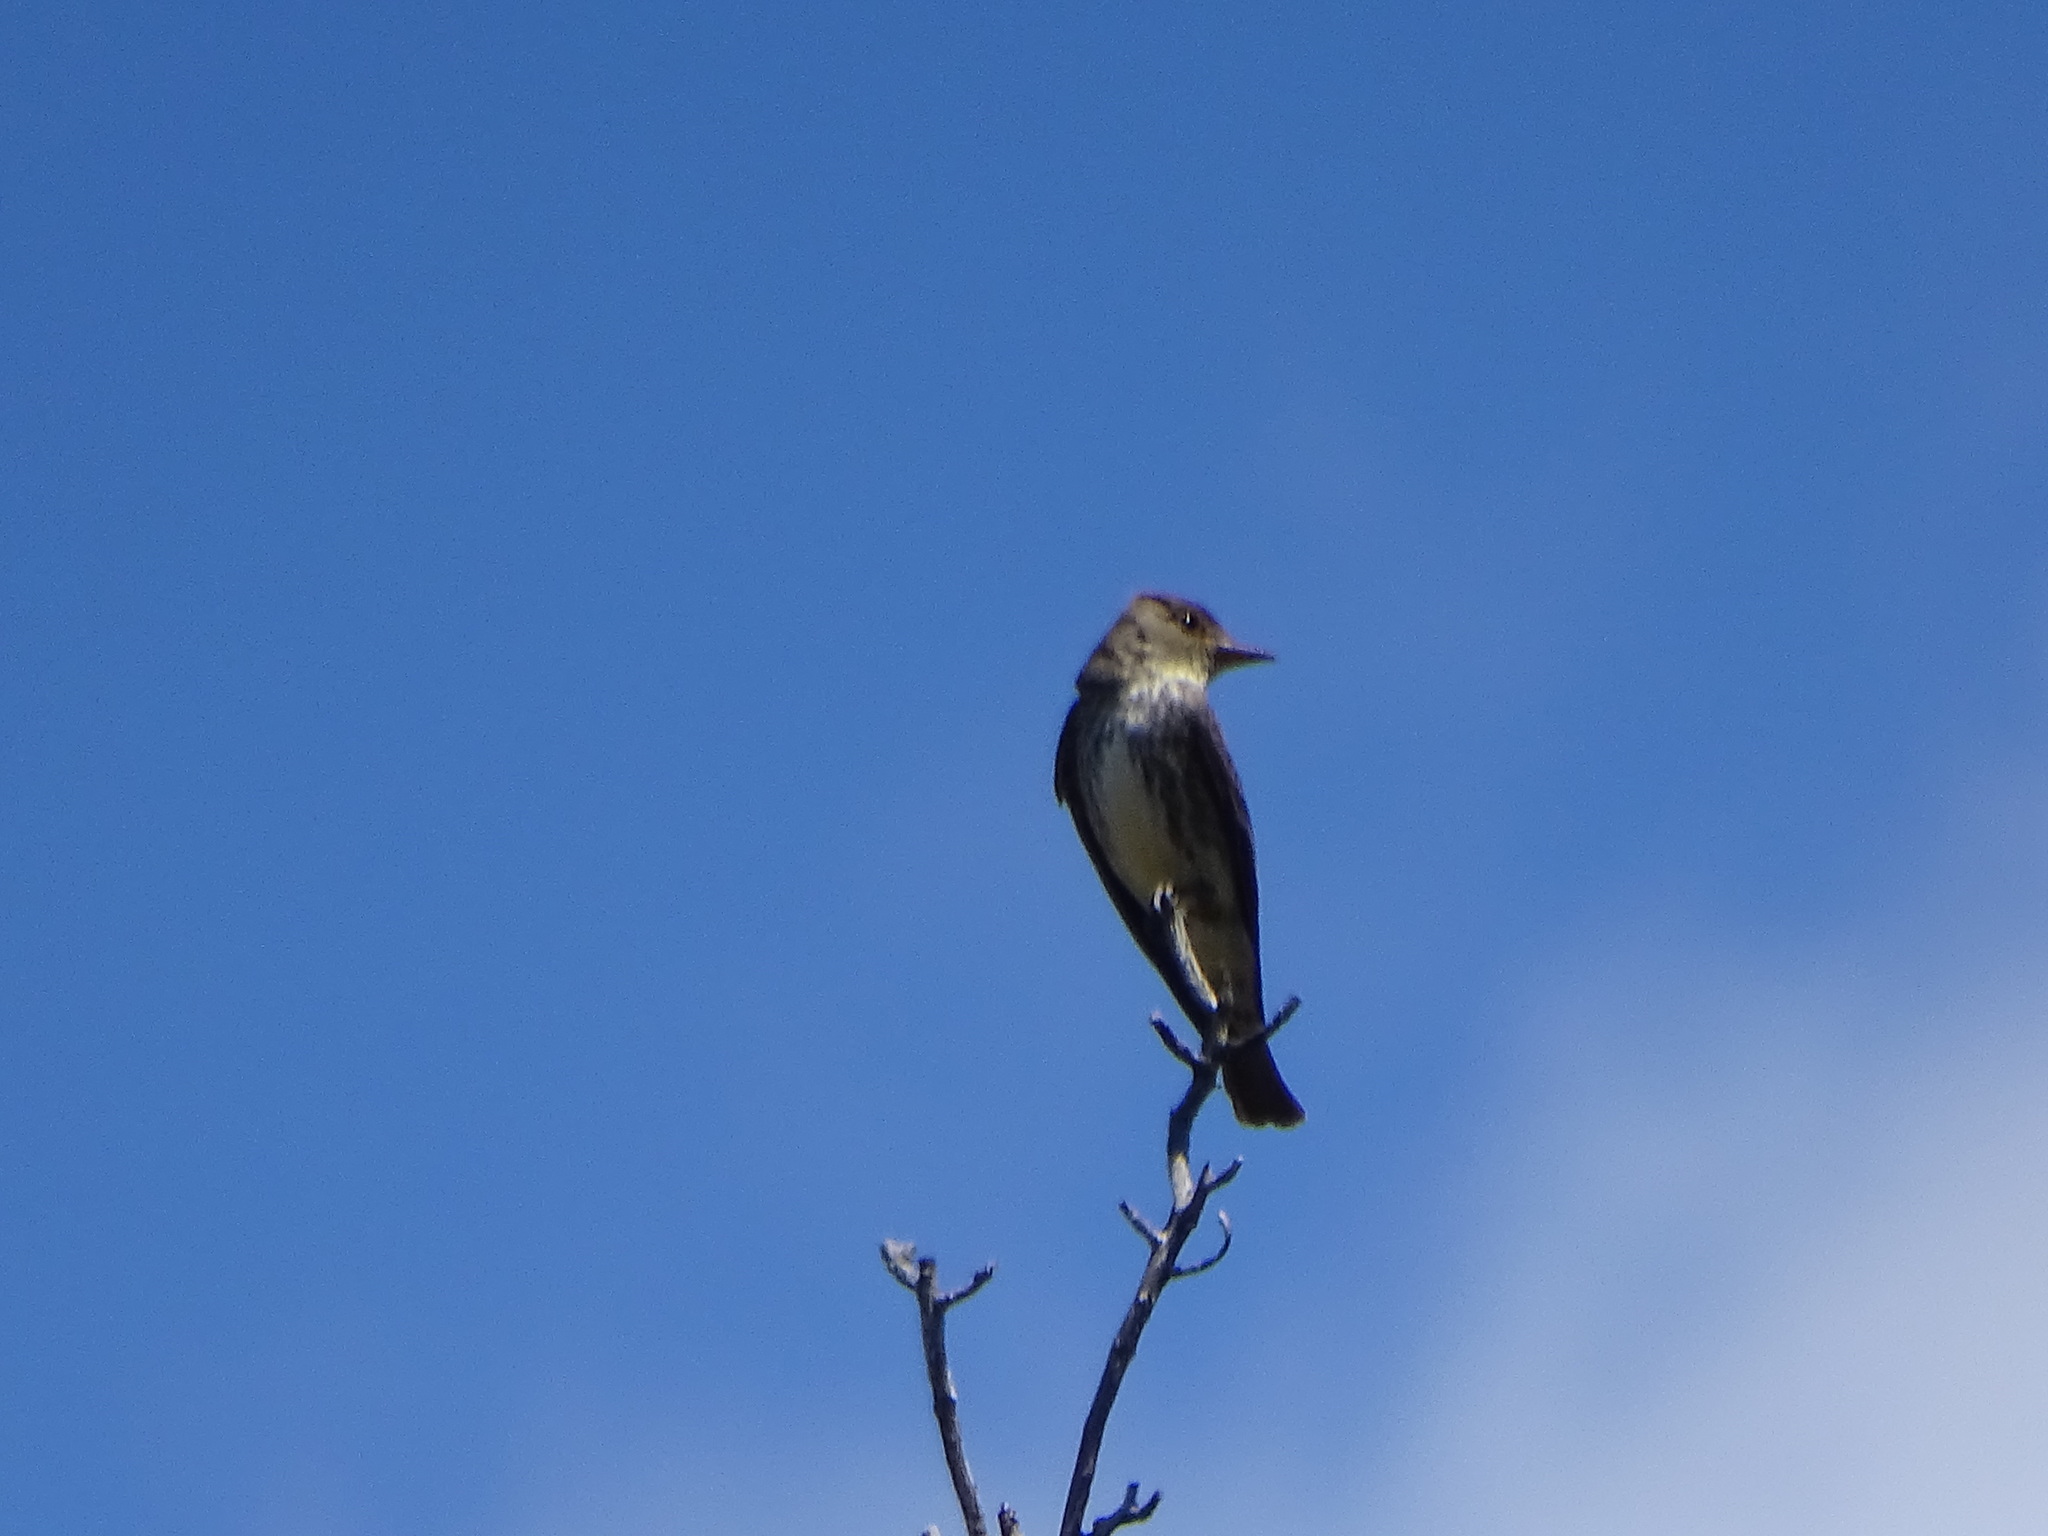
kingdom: Animalia
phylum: Chordata
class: Aves
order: Passeriformes
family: Tyrannidae
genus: Contopus
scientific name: Contopus cooperi
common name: Olive-sided flycatcher
